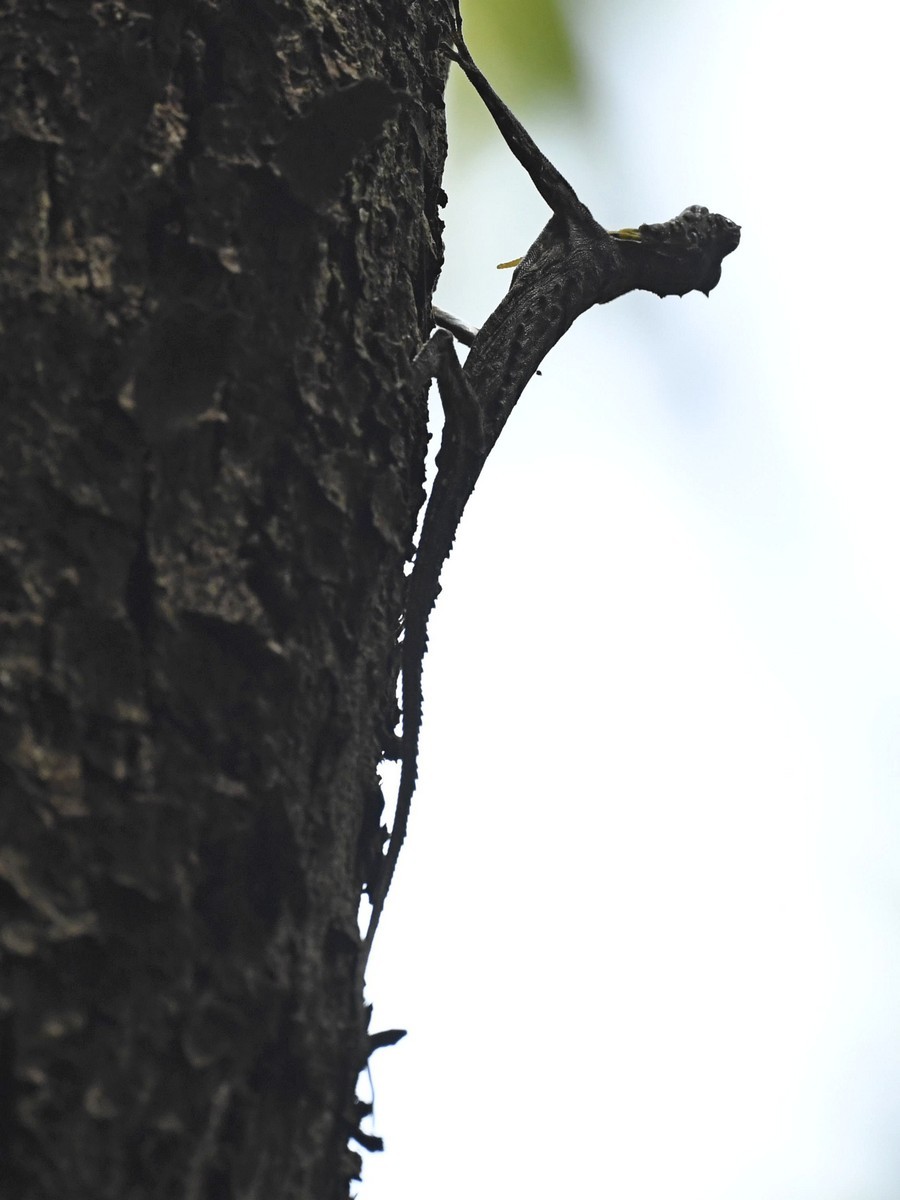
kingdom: Animalia
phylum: Chordata
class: Squamata
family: Agamidae
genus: Draco
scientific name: Draco dussumieri
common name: Southern flying lizard
